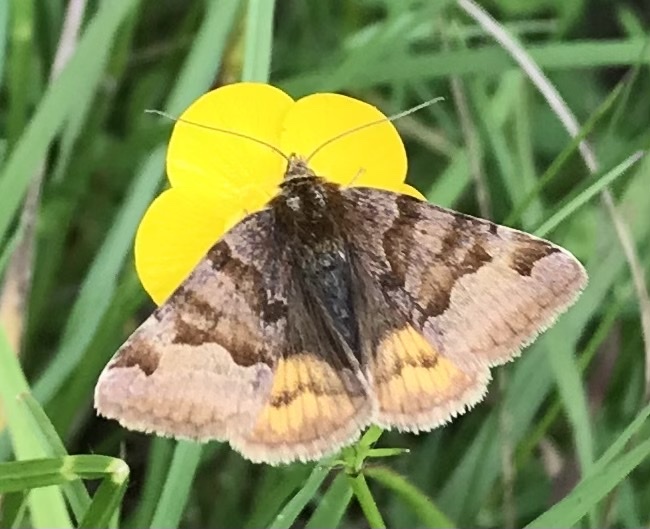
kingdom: Animalia
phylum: Arthropoda
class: Insecta
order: Lepidoptera
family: Erebidae
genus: Euclidia
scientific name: Euclidia glyphica
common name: Burnet companion
